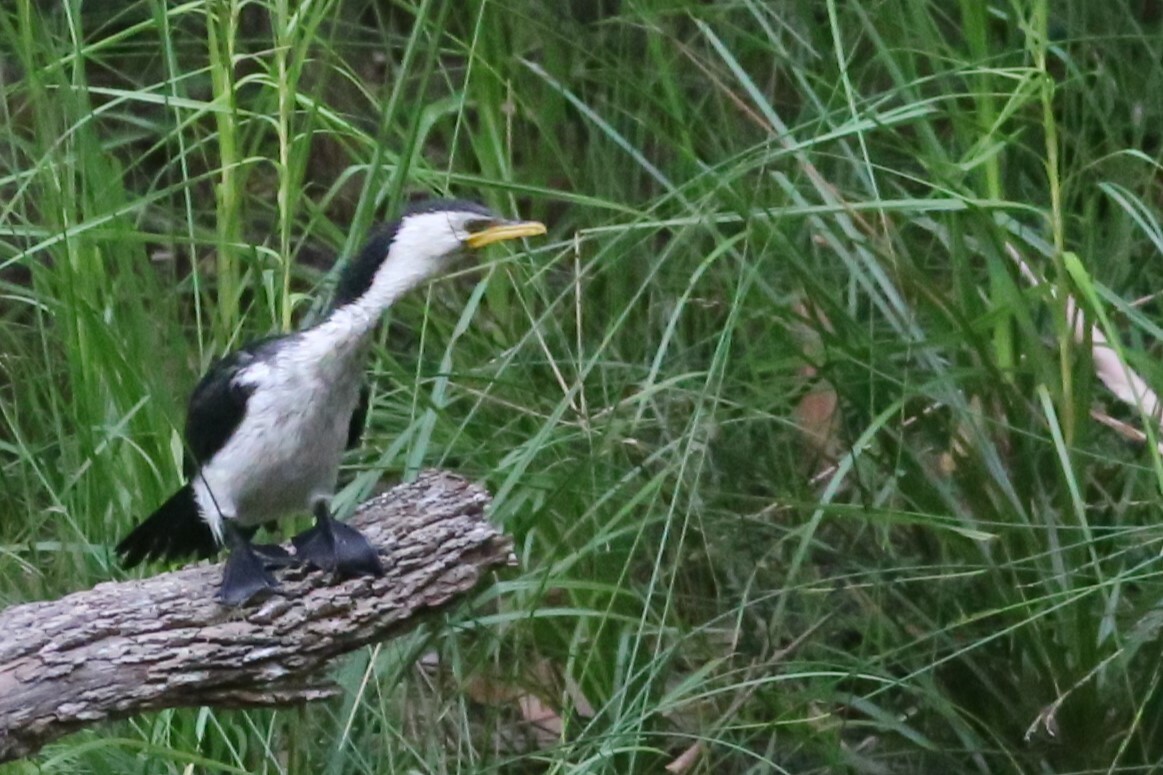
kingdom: Animalia
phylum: Chordata
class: Aves
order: Suliformes
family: Phalacrocoracidae
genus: Microcarbo
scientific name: Microcarbo melanoleucos
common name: Little pied cormorant
